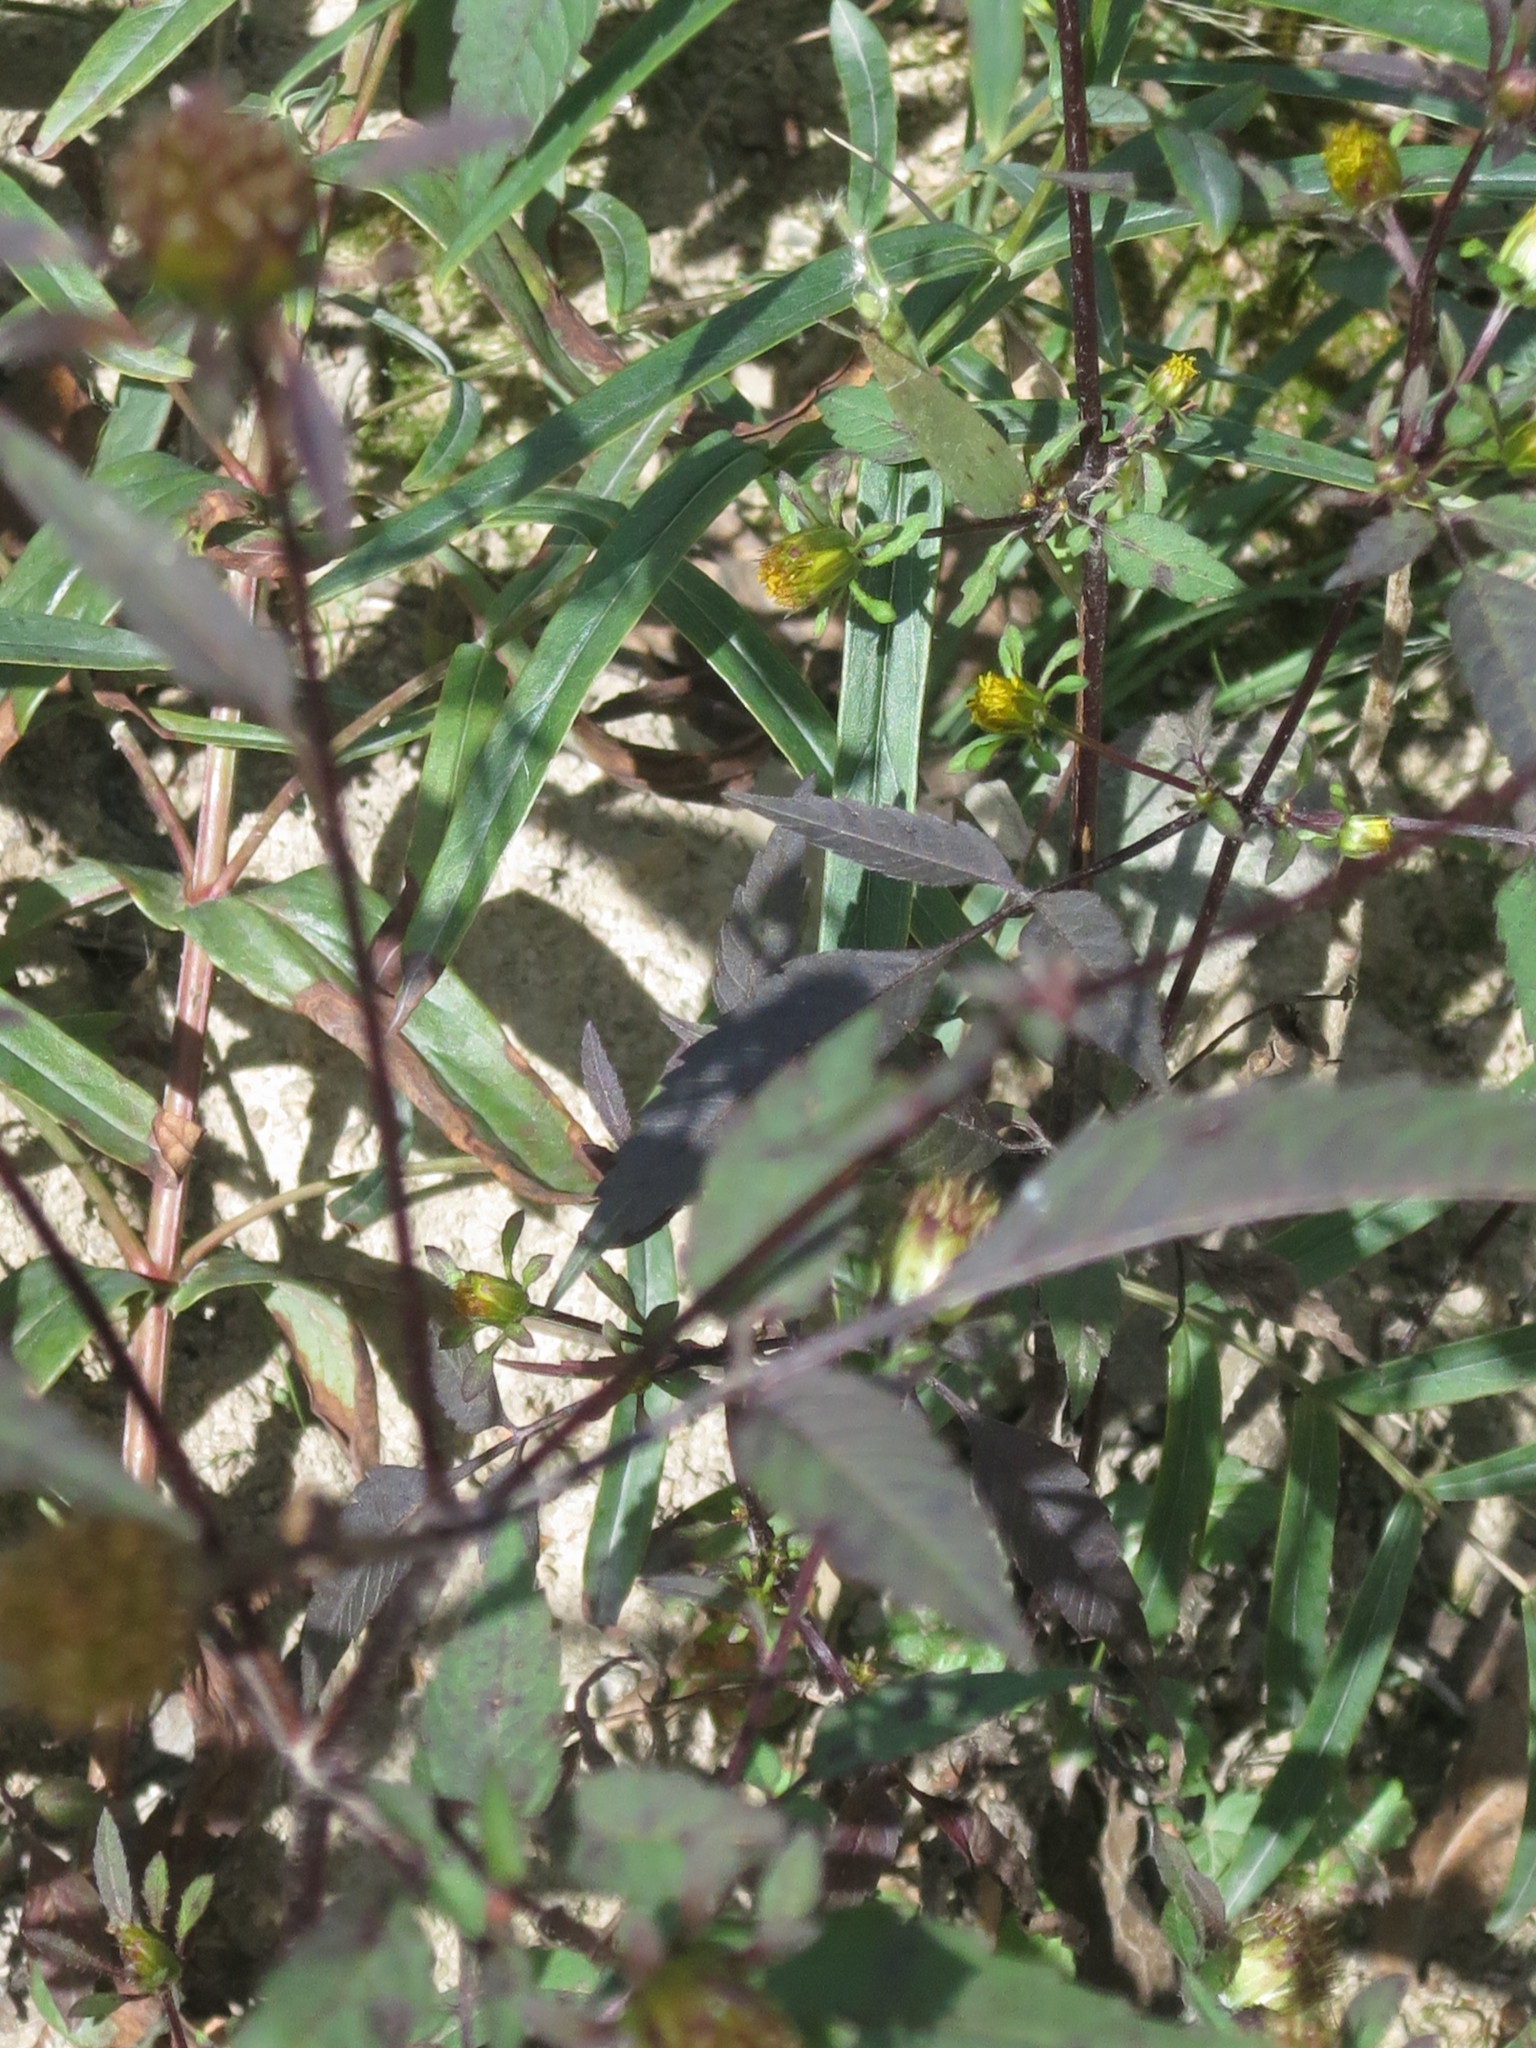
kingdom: Plantae
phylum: Tracheophyta
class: Magnoliopsida
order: Asterales
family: Asteraceae
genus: Bidens
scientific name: Bidens frondosa
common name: Beggarticks
